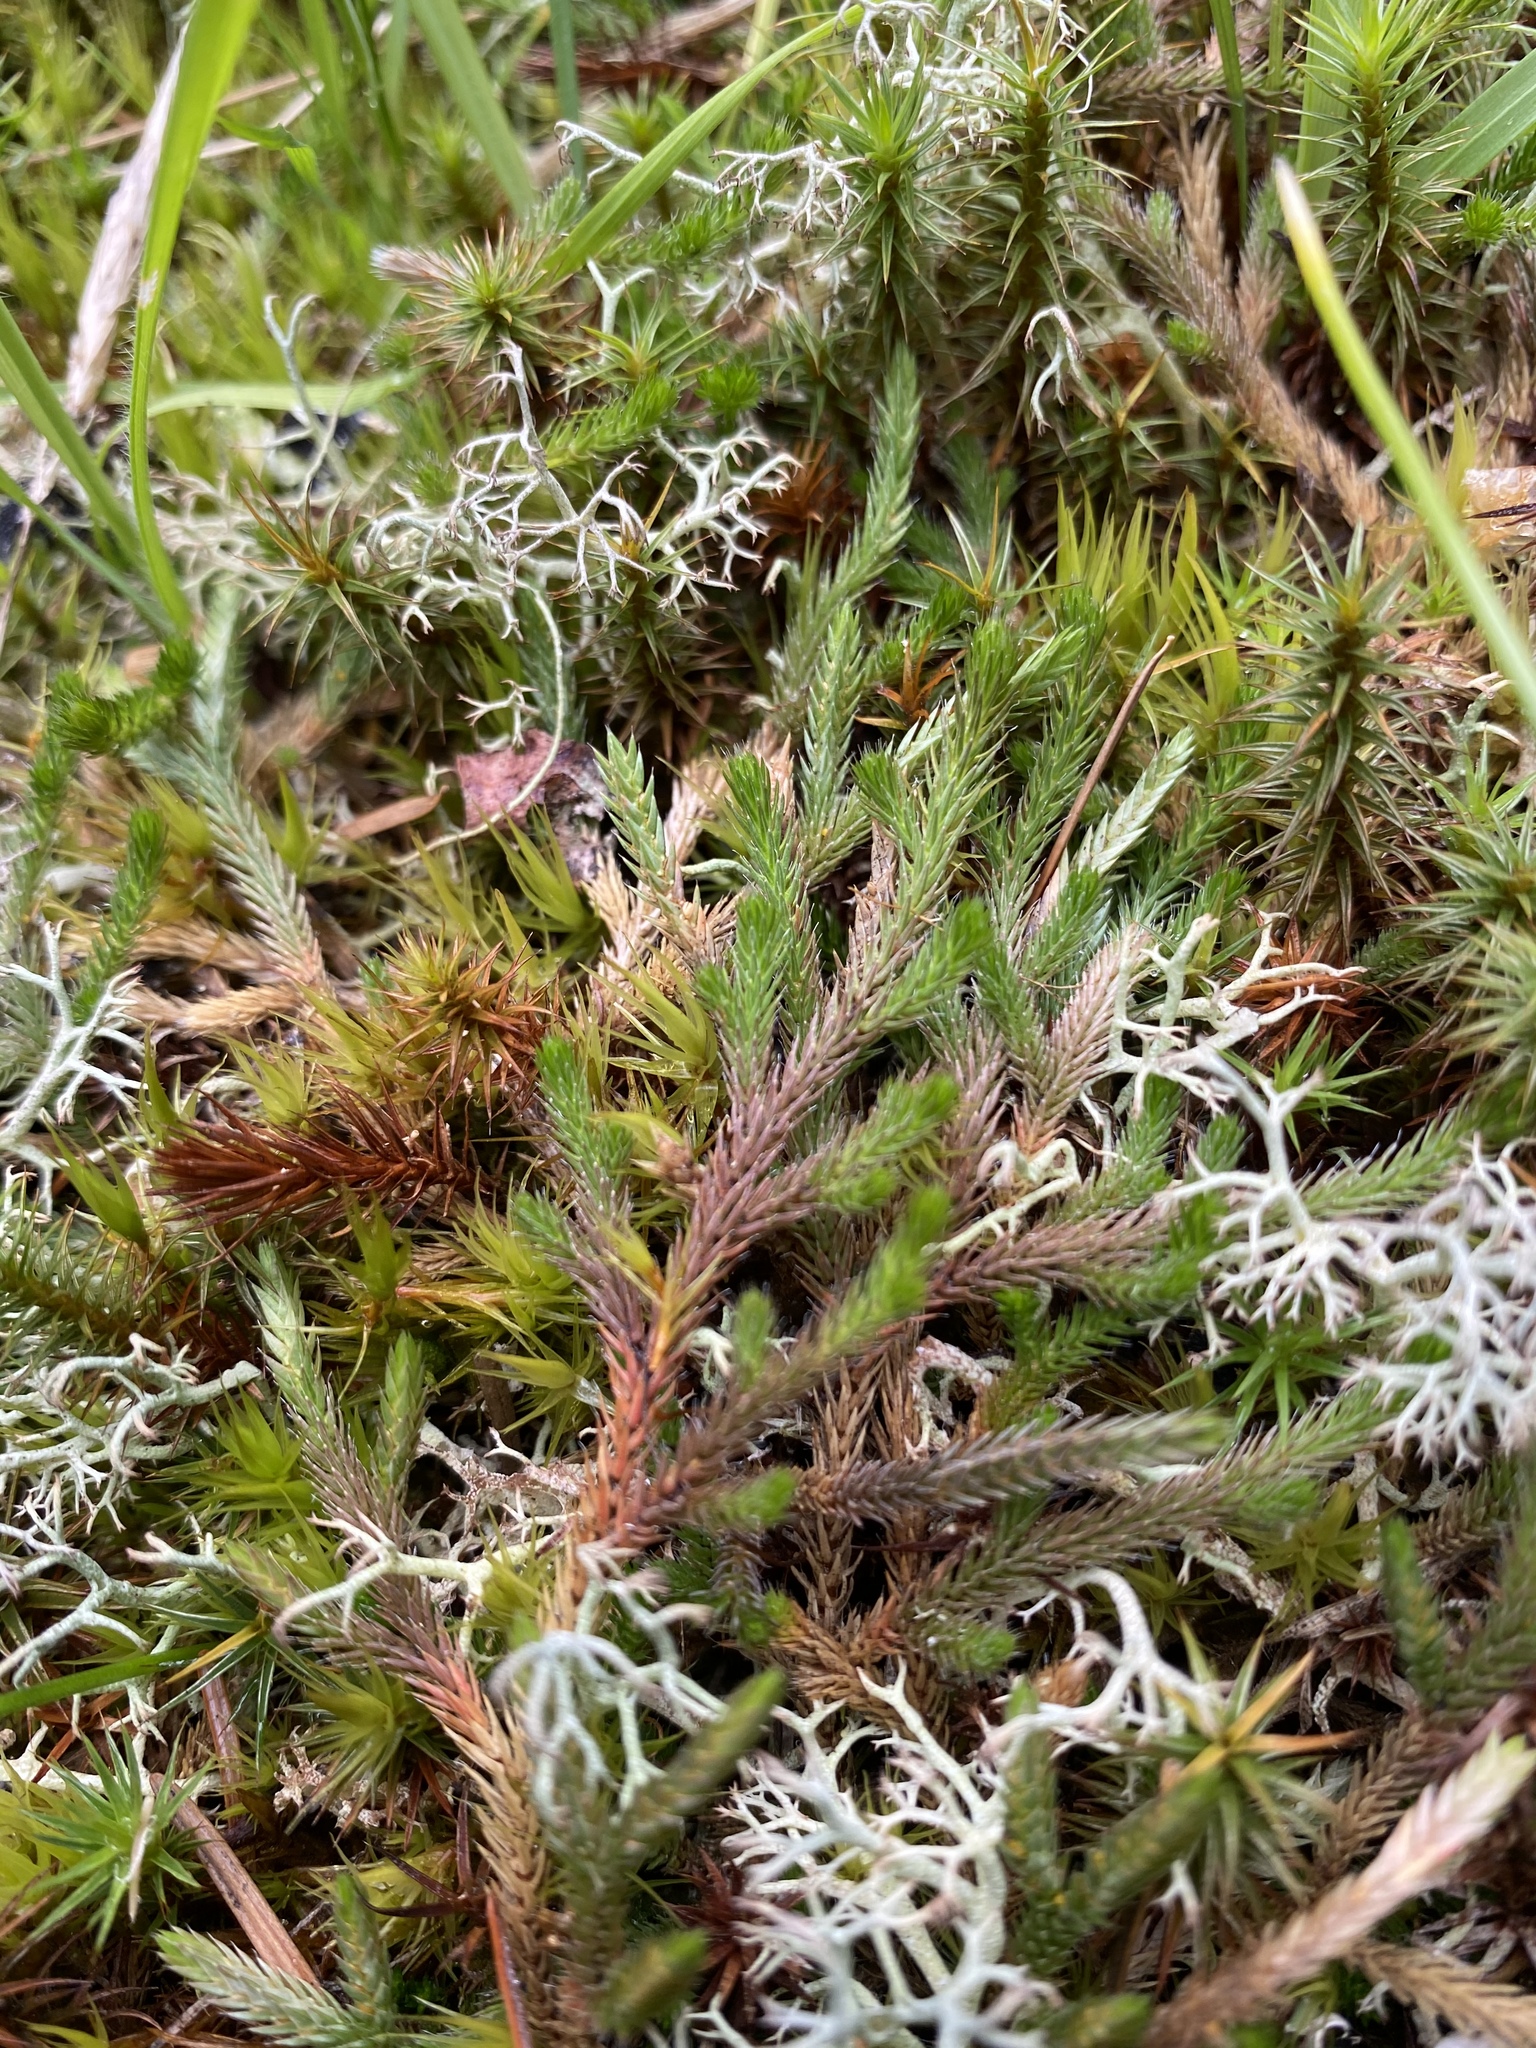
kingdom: Plantae
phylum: Tracheophyta
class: Lycopodiopsida
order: Selaginellales
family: Selaginellaceae
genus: Selaginella
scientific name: Selaginella wallacei
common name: Wallace's selaginella
